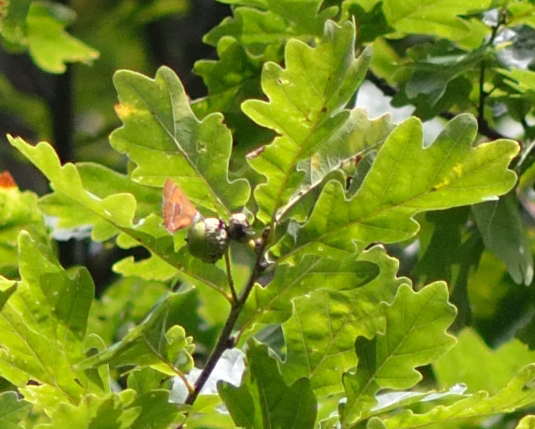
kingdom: Animalia
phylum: Arthropoda
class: Insecta
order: Lepidoptera
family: Lycaenidae
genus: Thecla
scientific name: Thecla betulae
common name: Brown hairstreak
